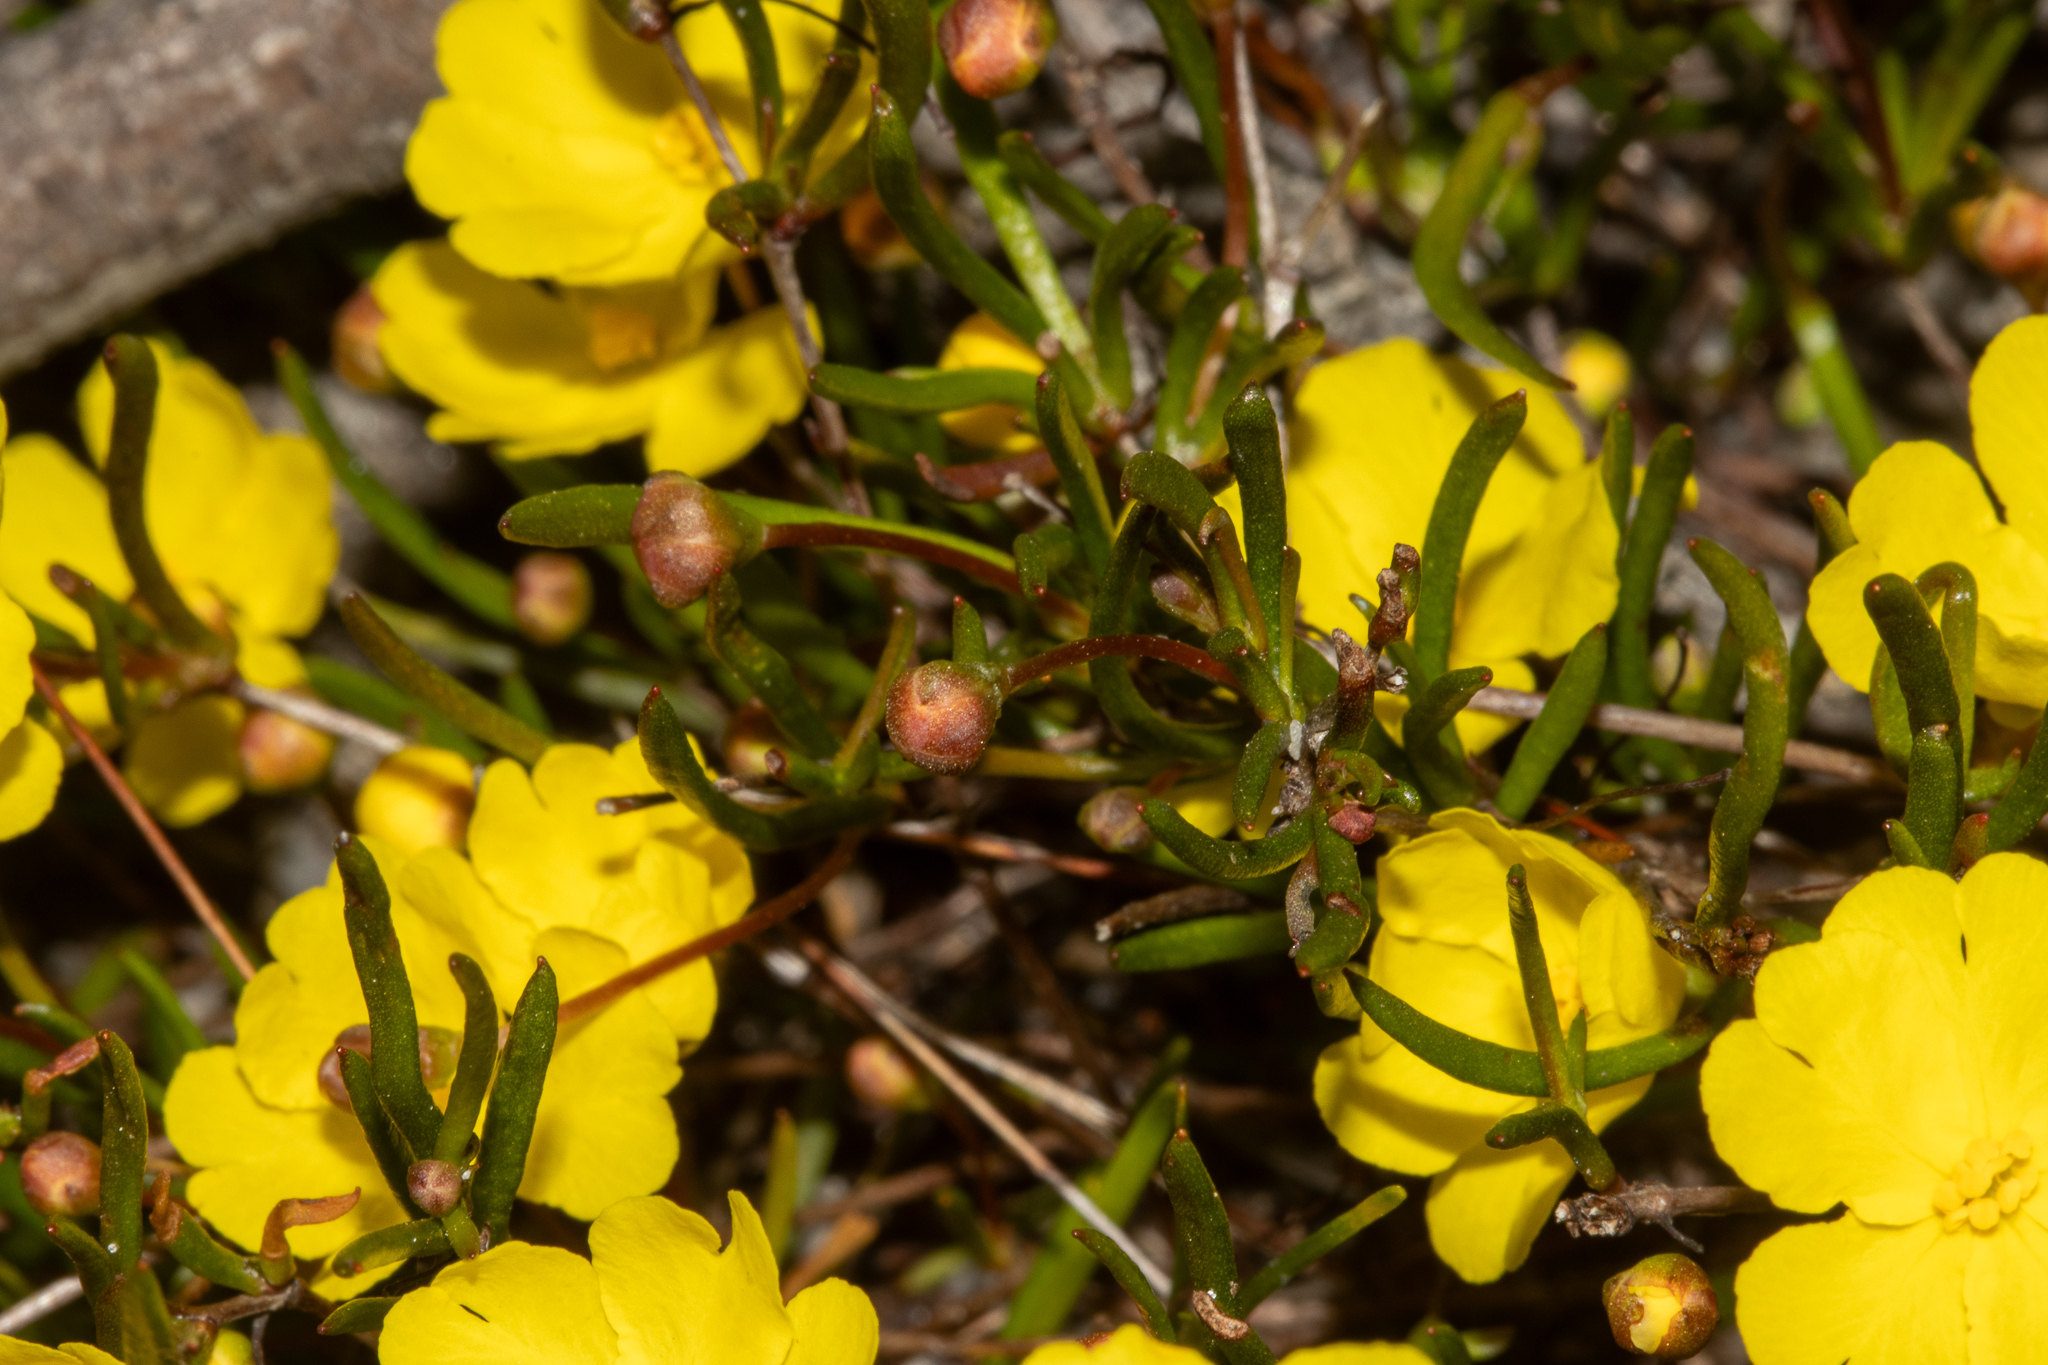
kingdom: Plantae
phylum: Tracheophyta
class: Magnoliopsida
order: Dilleniales
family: Dilleniaceae
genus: Hibbertia
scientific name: Hibbertia stellaris
